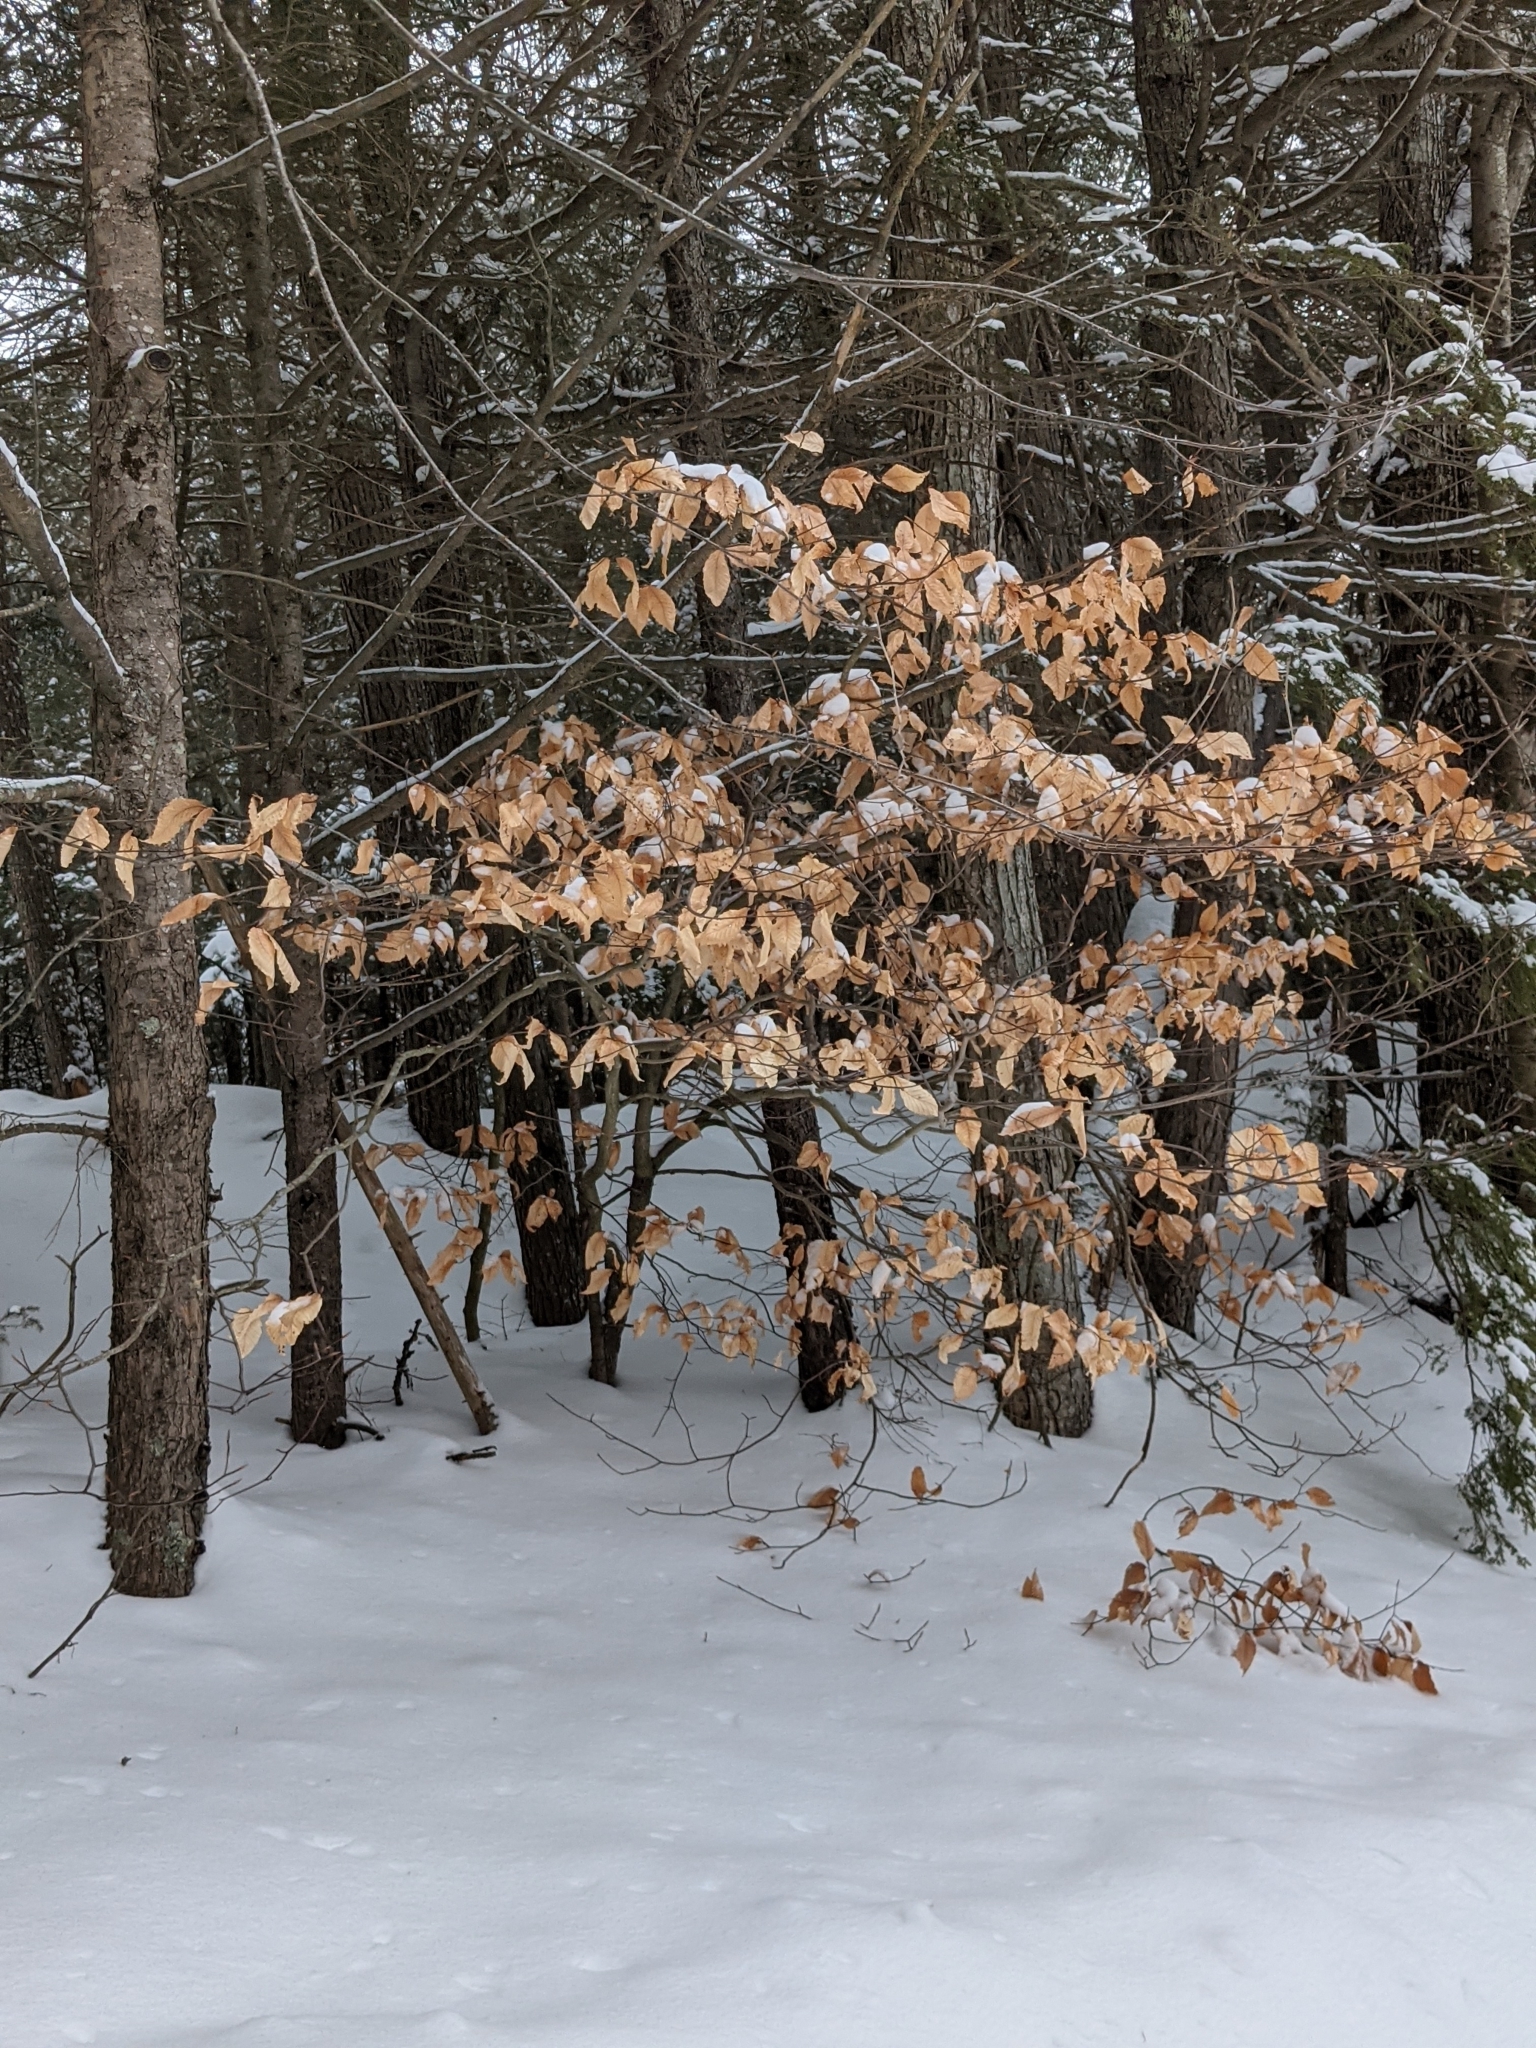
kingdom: Plantae
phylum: Tracheophyta
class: Magnoliopsida
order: Fagales
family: Fagaceae
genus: Fagus
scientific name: Fagus grandifolia
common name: American beech
